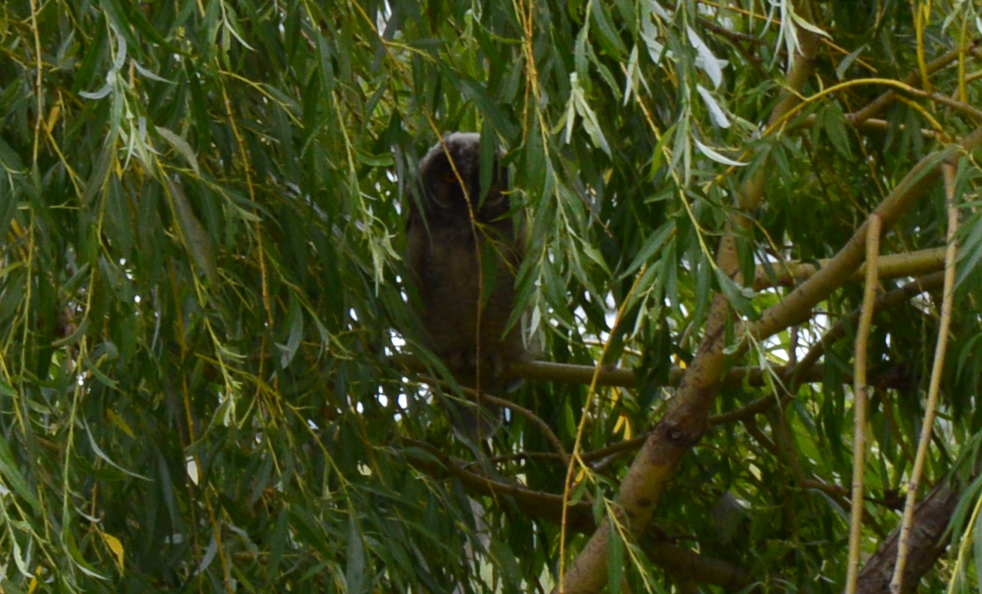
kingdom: Animalia
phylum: Chordata
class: Aves
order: Strigiformes
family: Strigidae
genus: Asio
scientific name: Asio otus
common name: Long-eared owl
